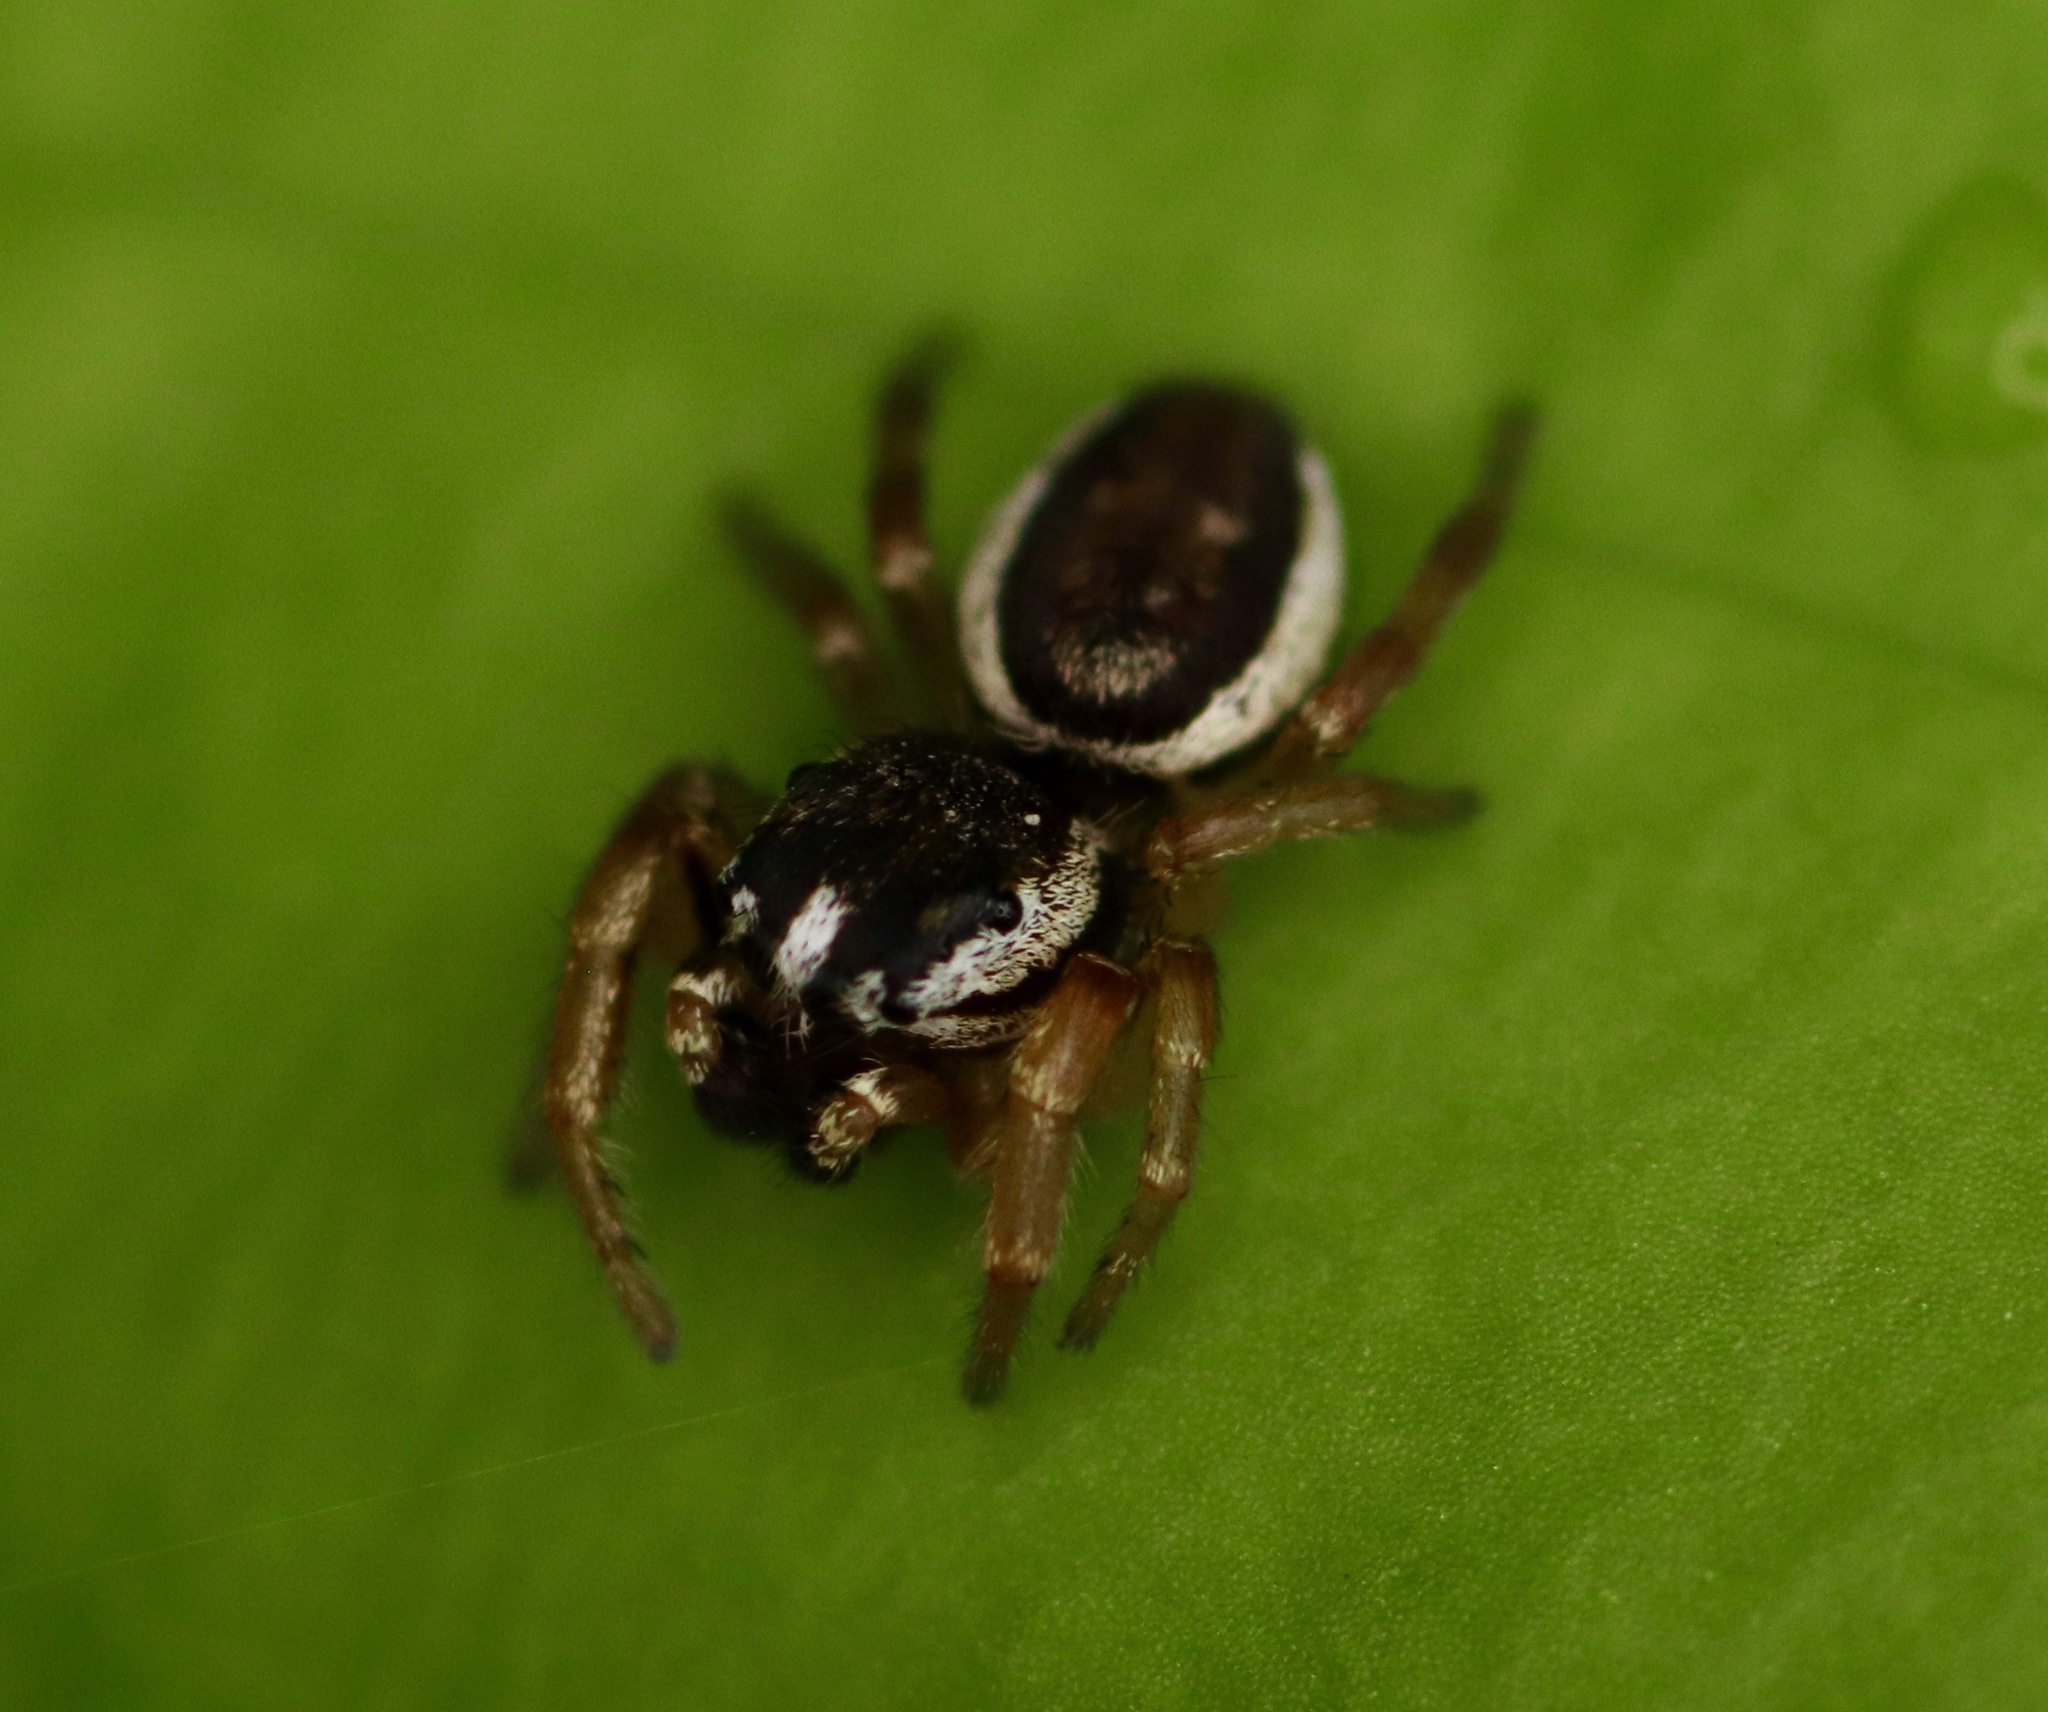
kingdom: Animalia
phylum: Arthropoda
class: Arachnida
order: Araneae
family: Salticidae
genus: Pelegrina
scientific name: Pelegrina flavipes
